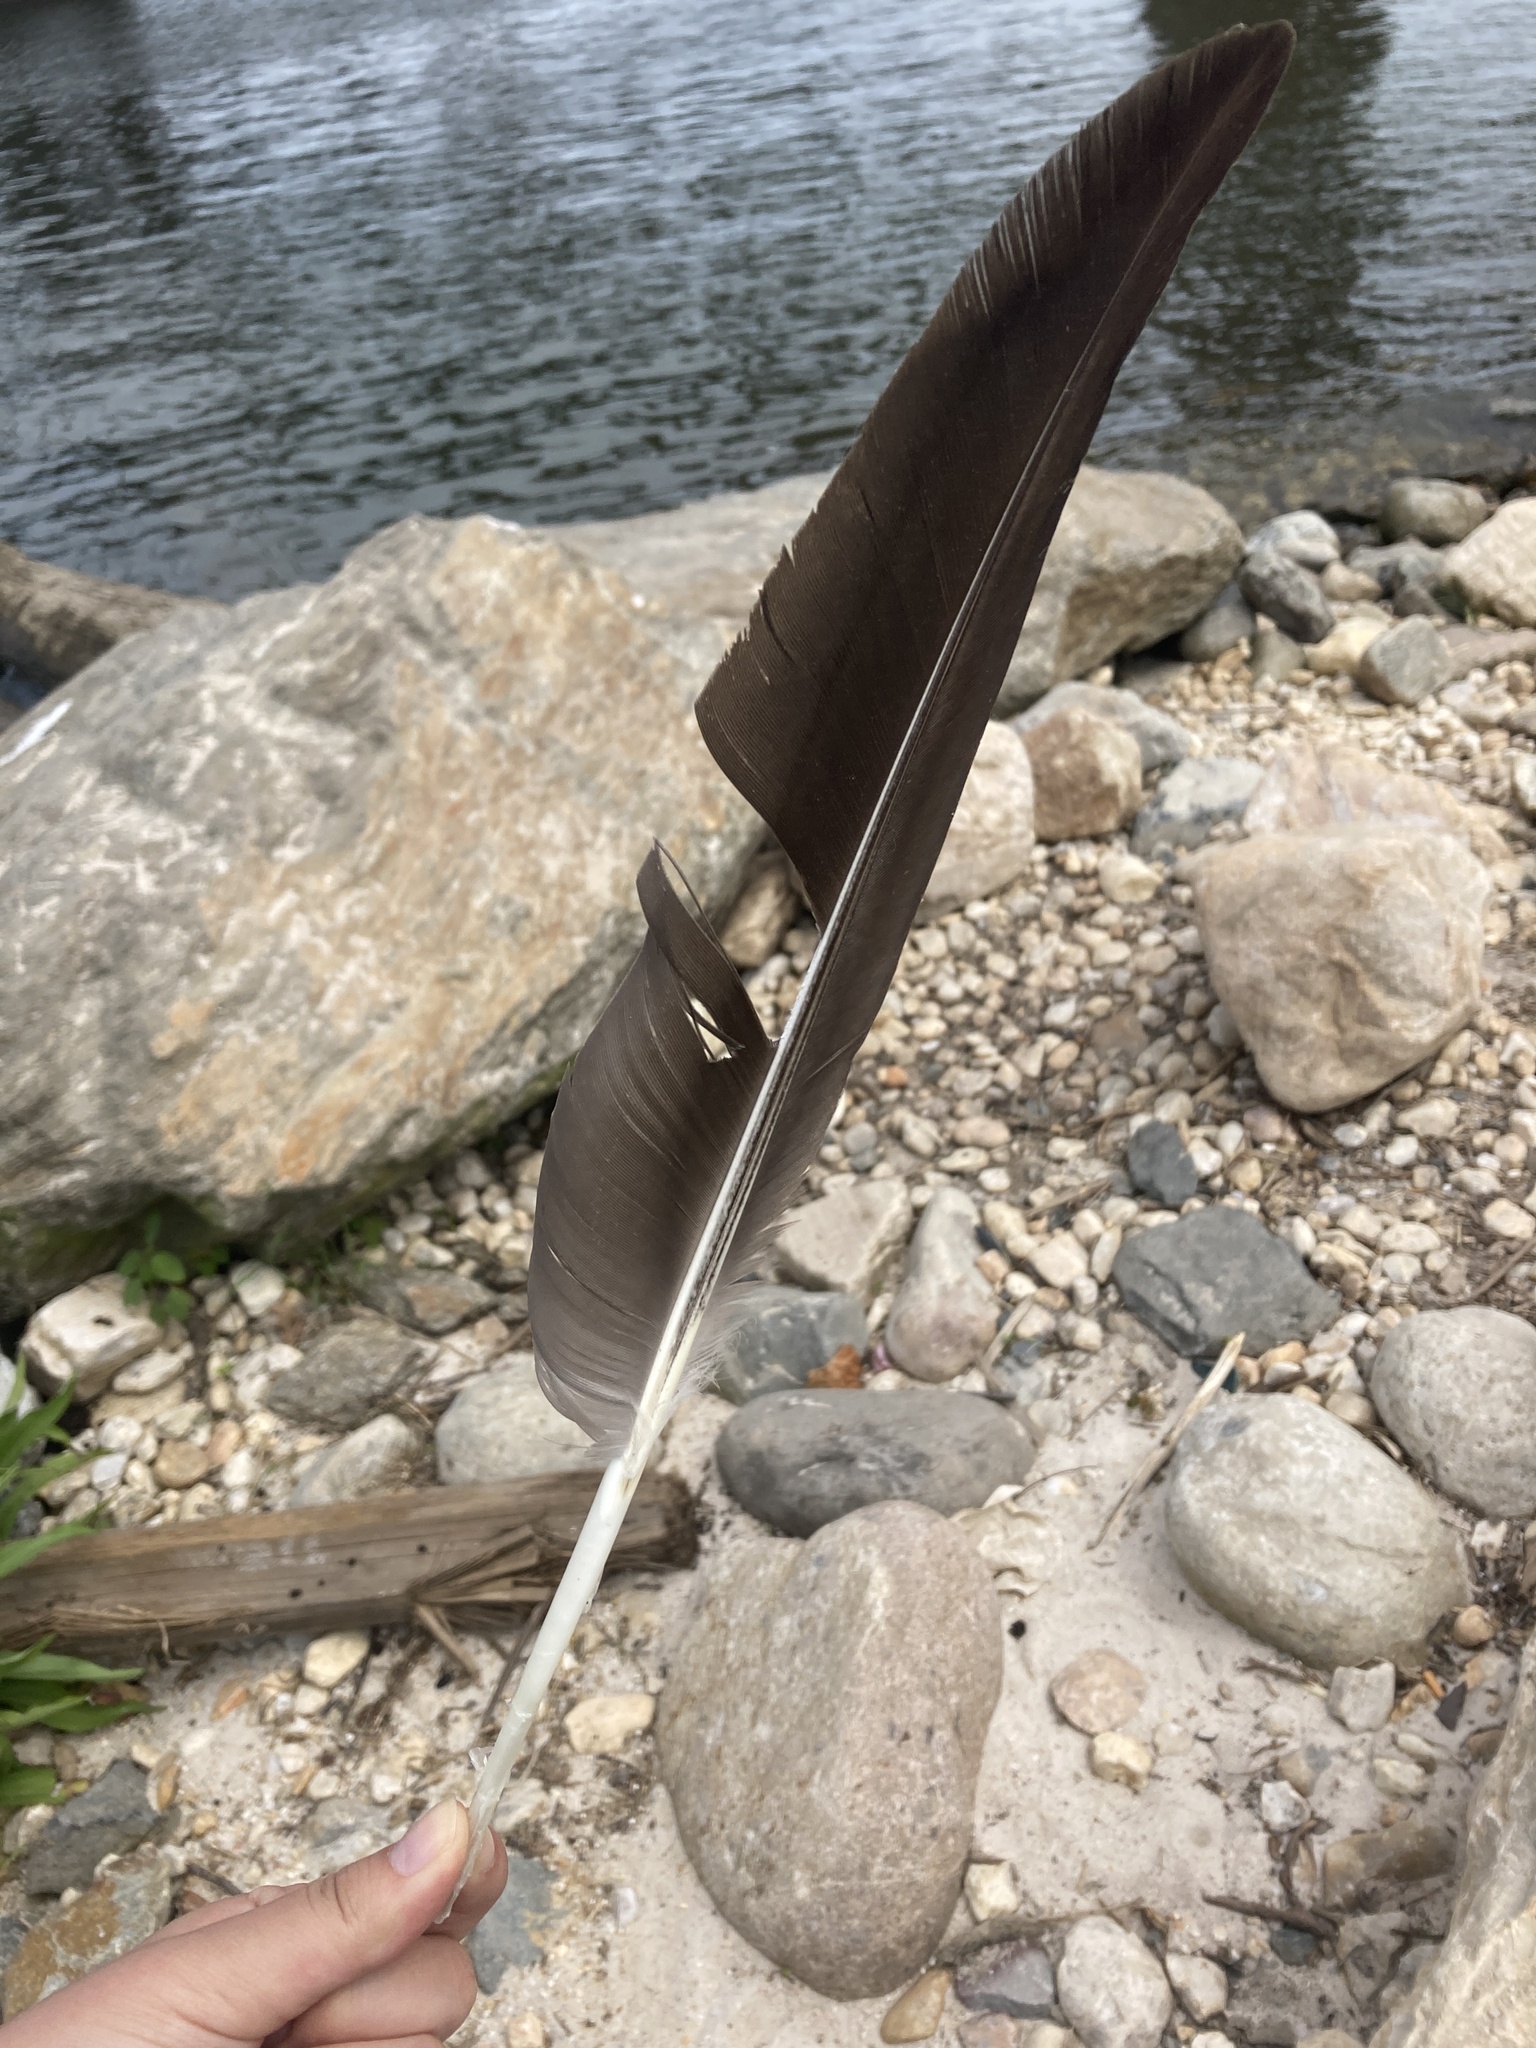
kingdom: Animalia
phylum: Chordata
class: Aves
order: Anseriformes
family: Anatidae
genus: Branta
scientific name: Branta canadensis
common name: Canada goose
